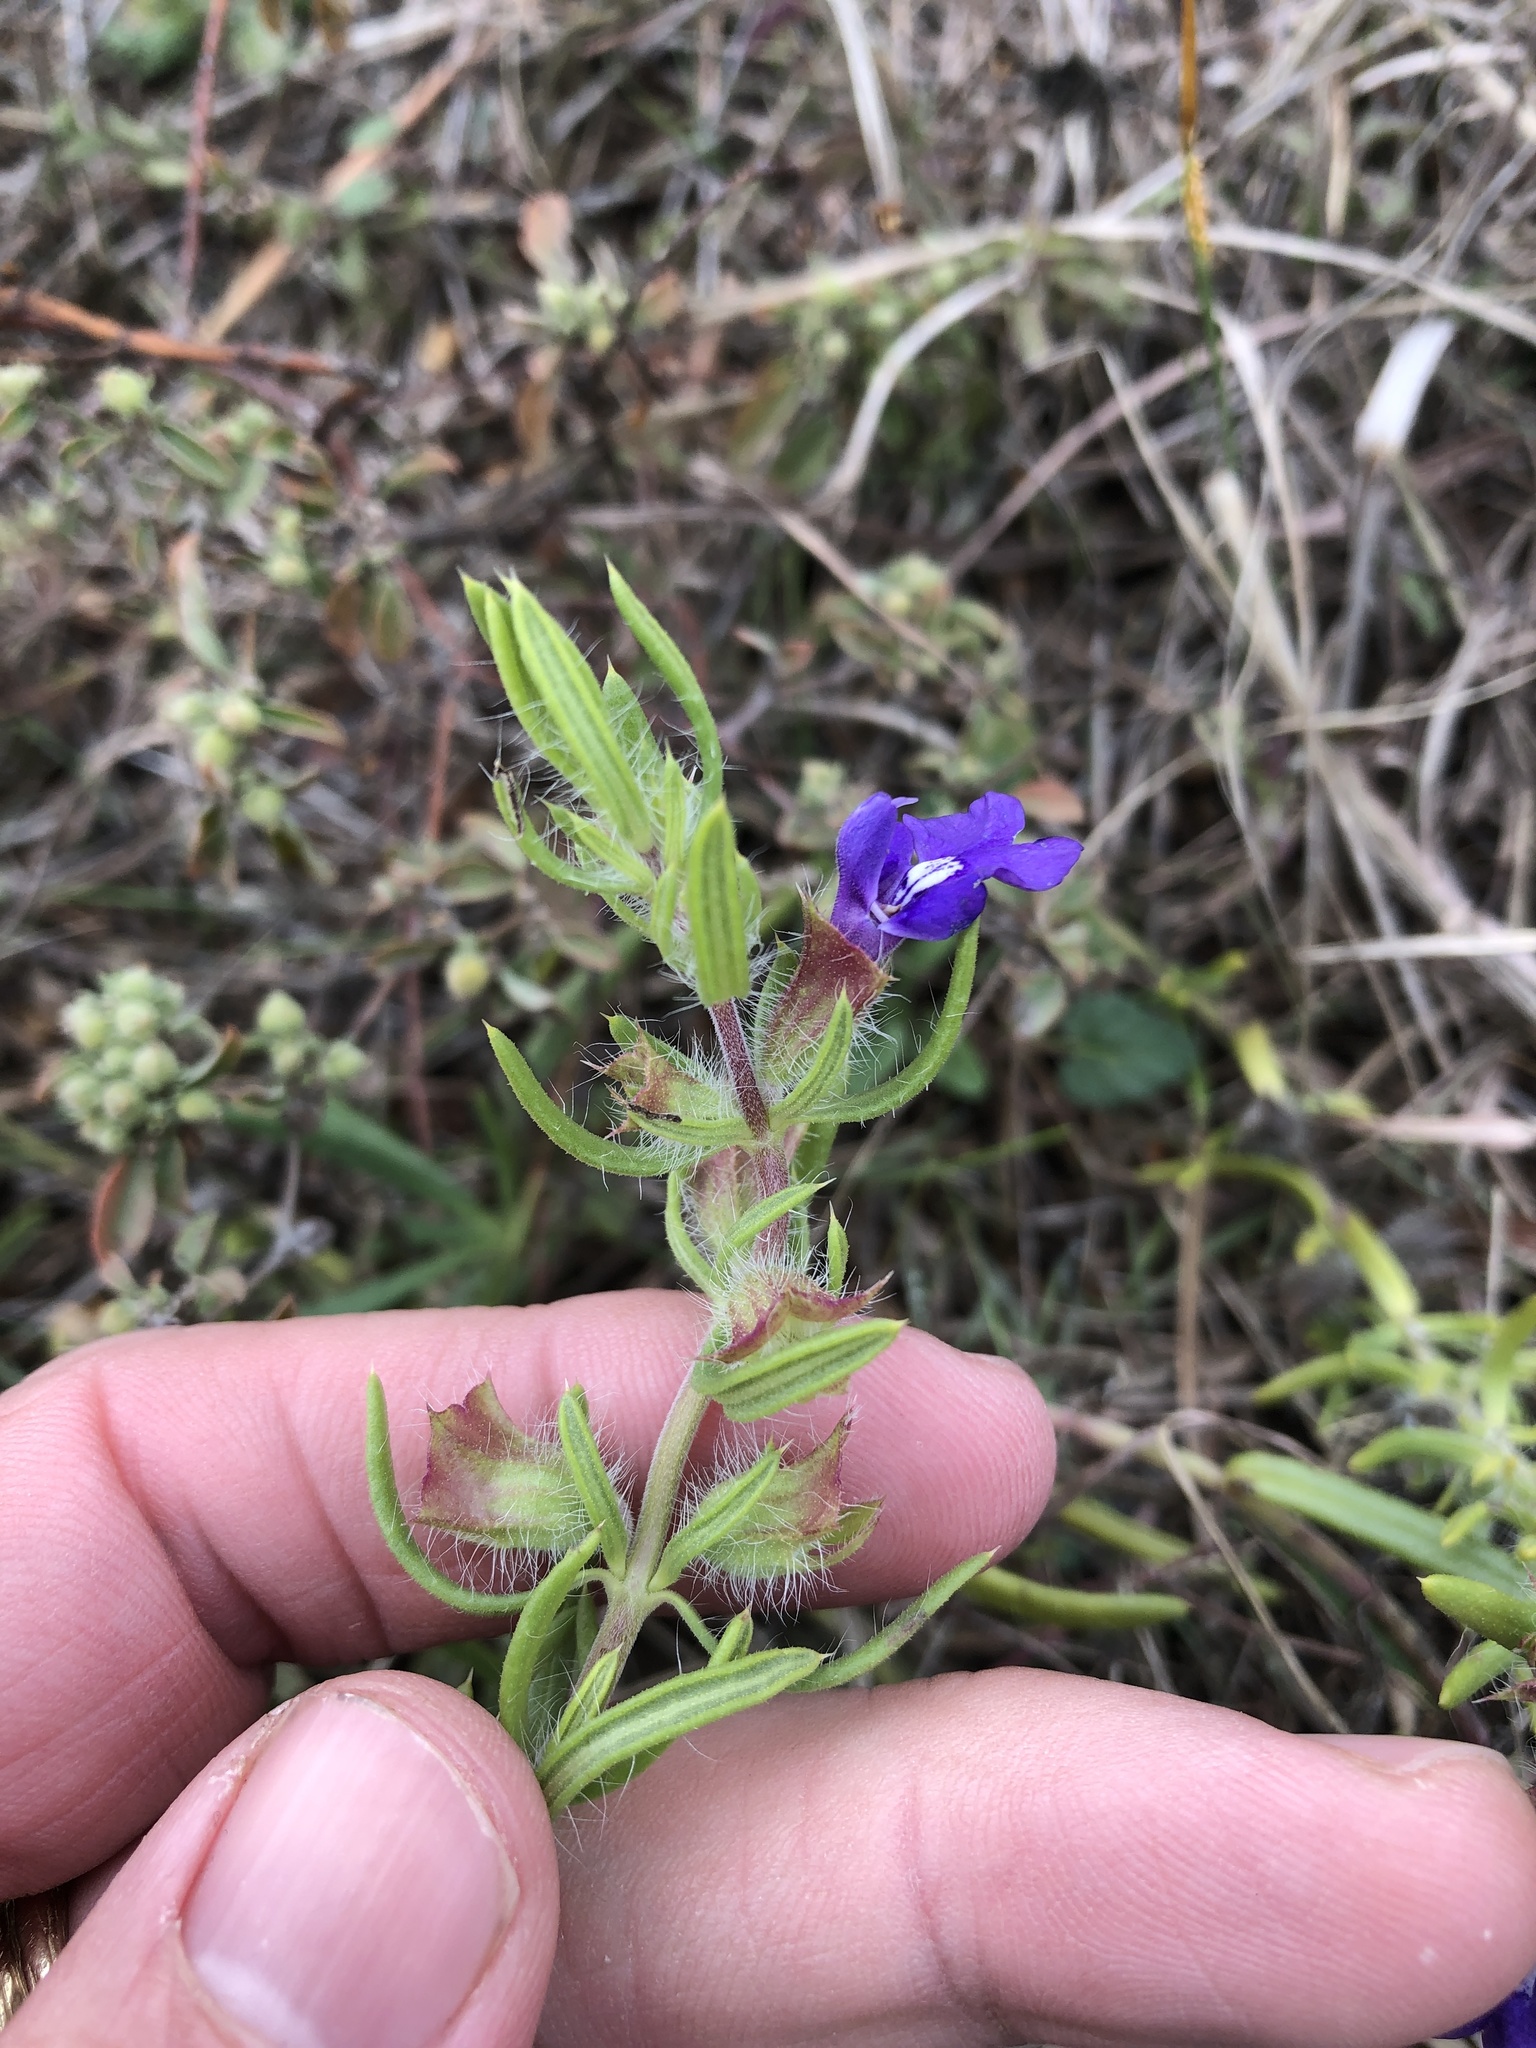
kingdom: Plantae
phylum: Tracheophyta
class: Magnoliopsida
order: Lamiales
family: Lamiaceae
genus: Salvia
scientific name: Salvia texana
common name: Texas sage
